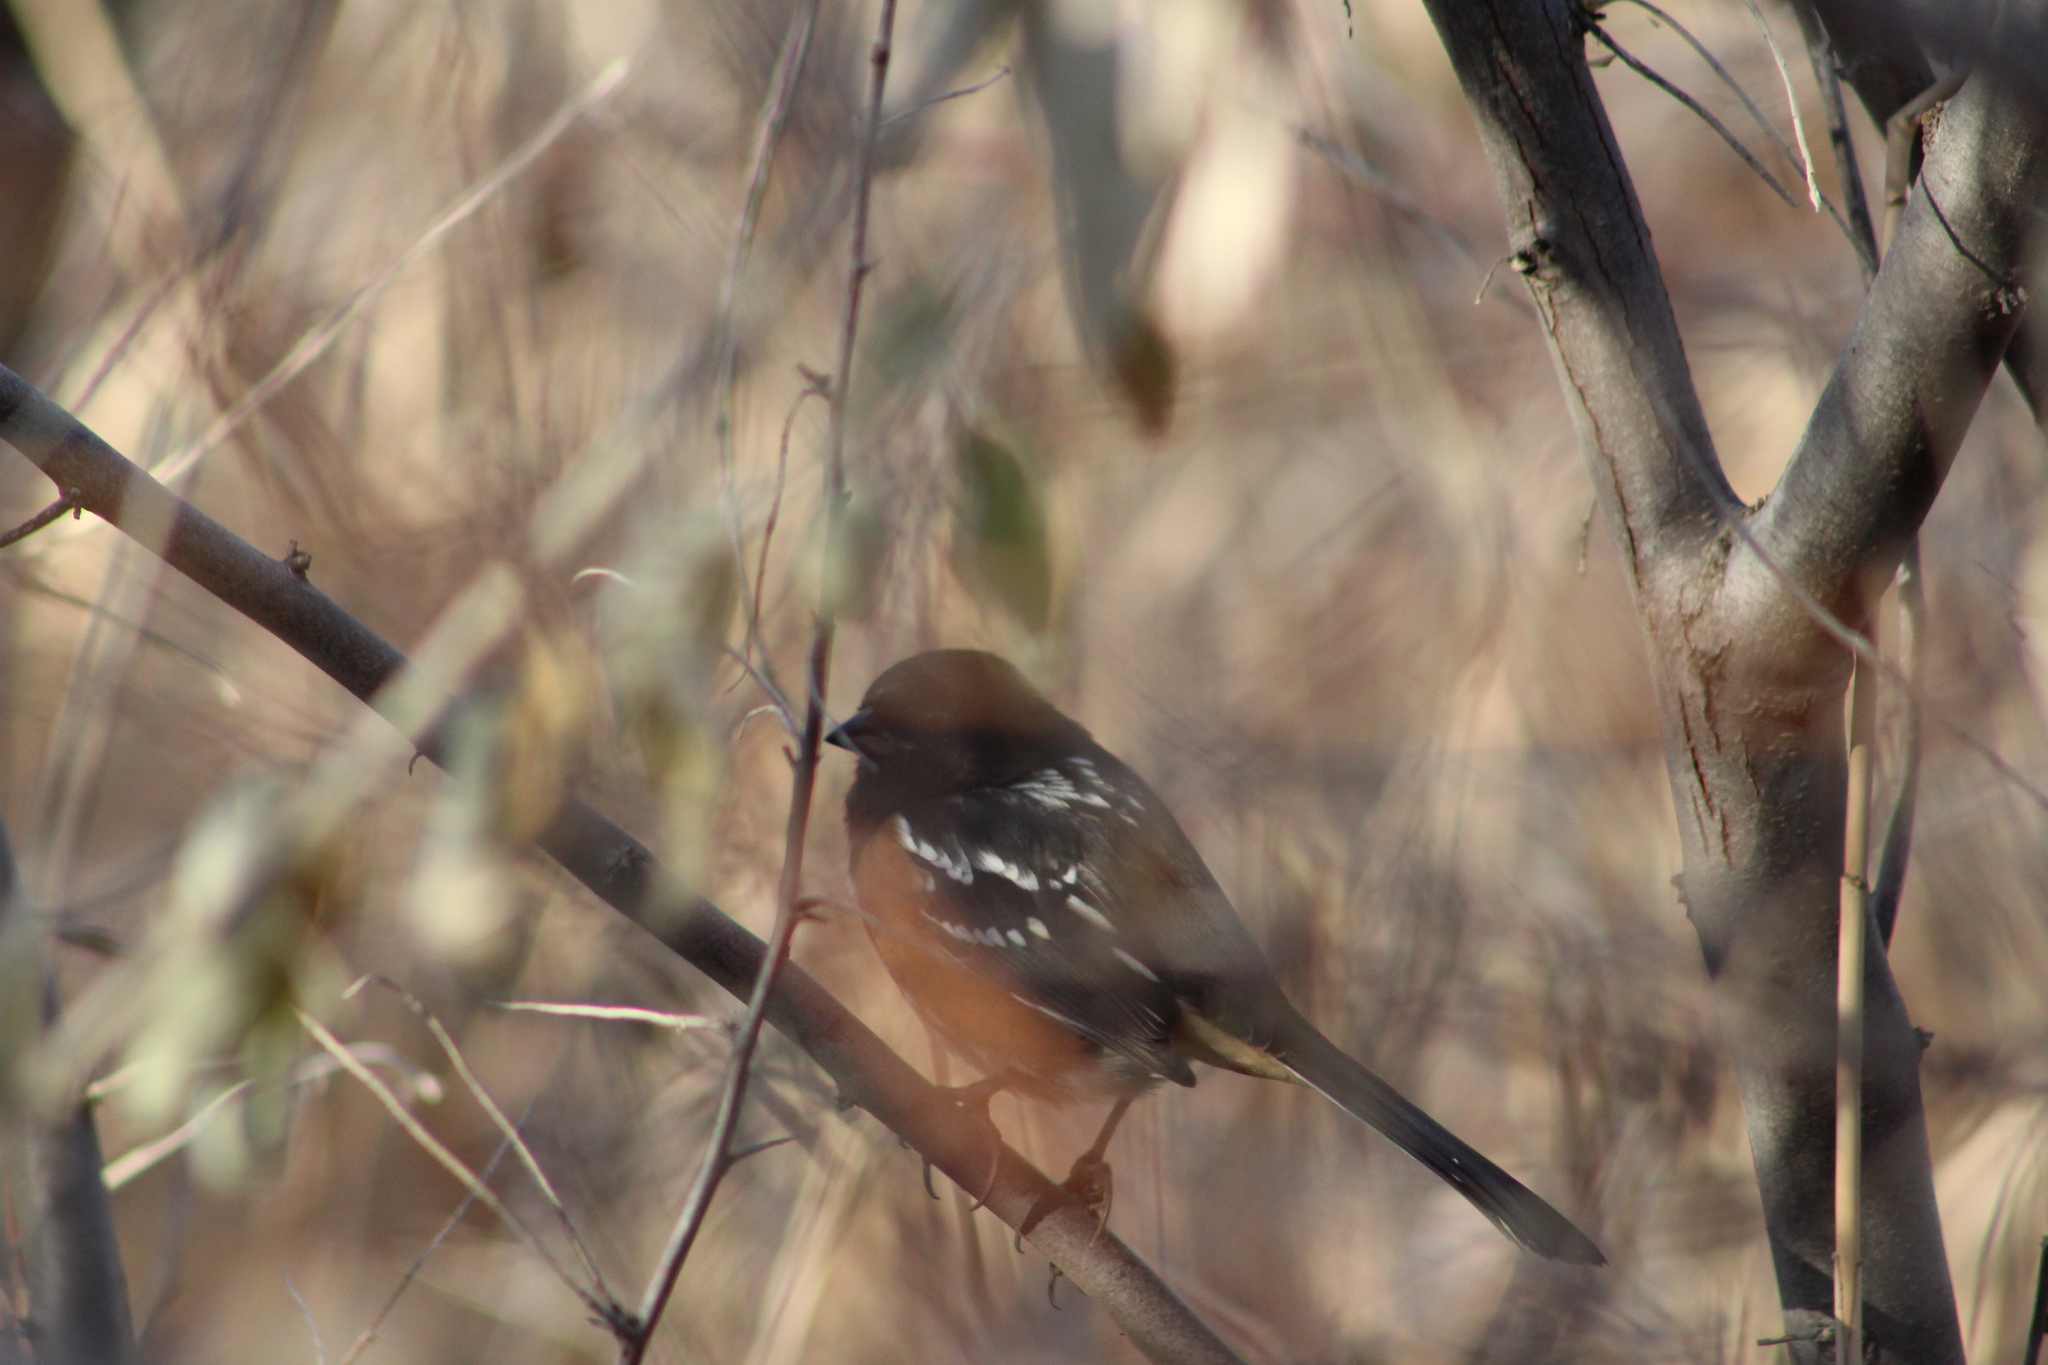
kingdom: Animalia
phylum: Chordata
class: Aves
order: Passeriformes
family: Passerellidae
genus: Pipilo
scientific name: Pipilo maculatus
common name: Spotted towhee
